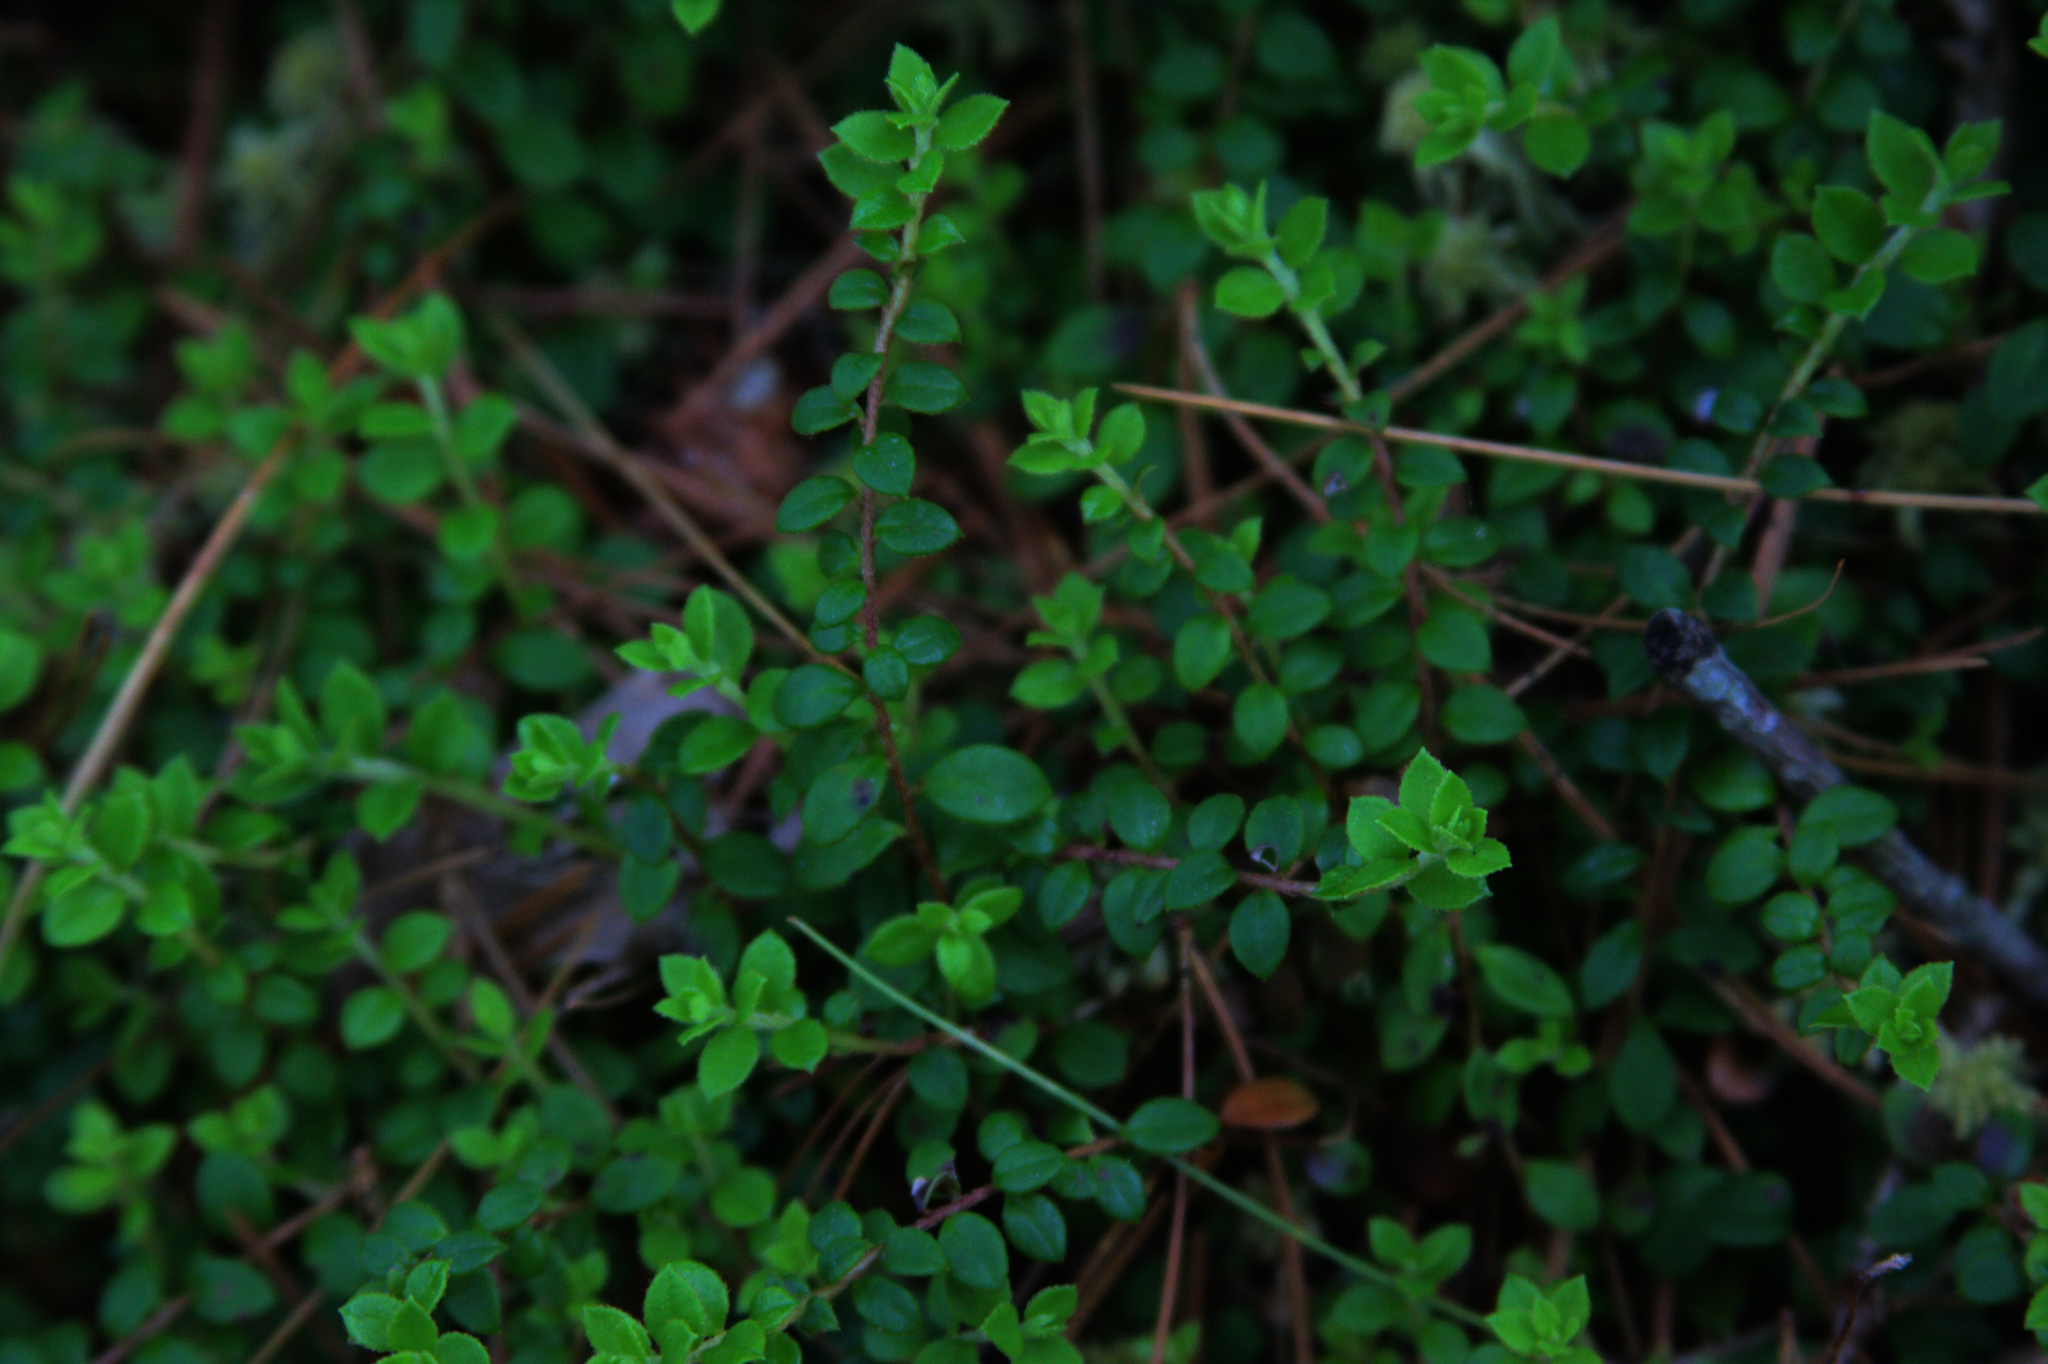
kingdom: Plantae
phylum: Tracheophyta
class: Magnoliopsida
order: Ericales
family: Ericaceae
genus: Gaultheria
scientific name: Gaultheria hispidula
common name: Cancer wintergreen
